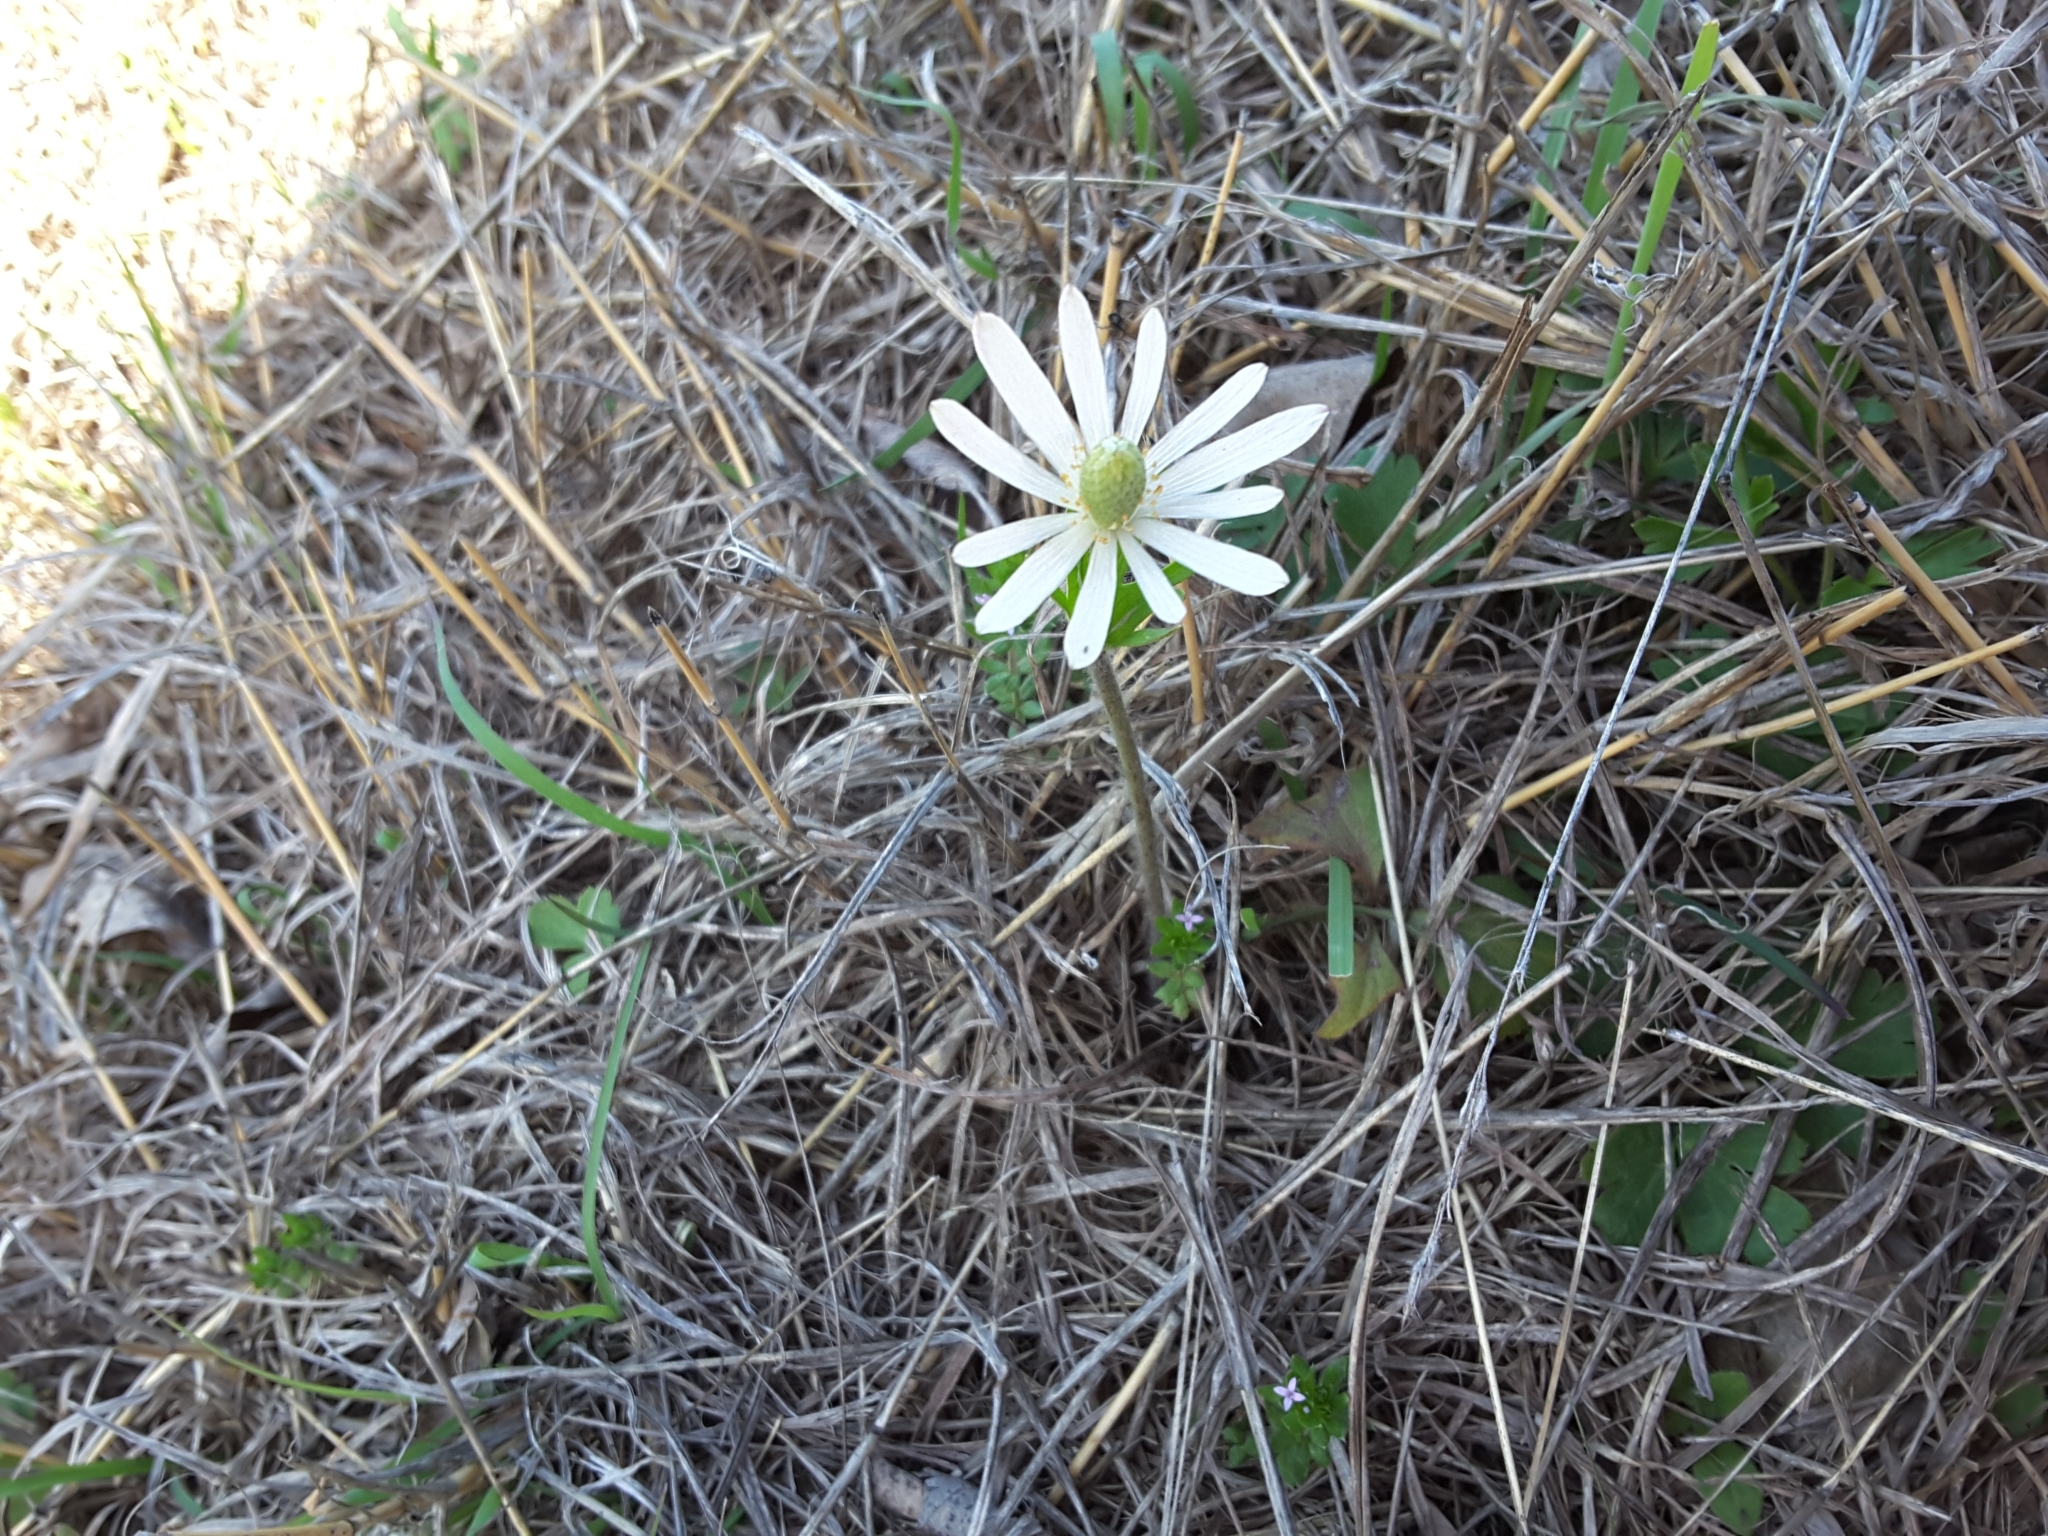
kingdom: Plantae
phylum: Tracheophyta
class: Magnoliopsida
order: Ranunculales
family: Ranunculaceae
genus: Anemone
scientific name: Anemone berlandieri
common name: Ten-petal anemone
